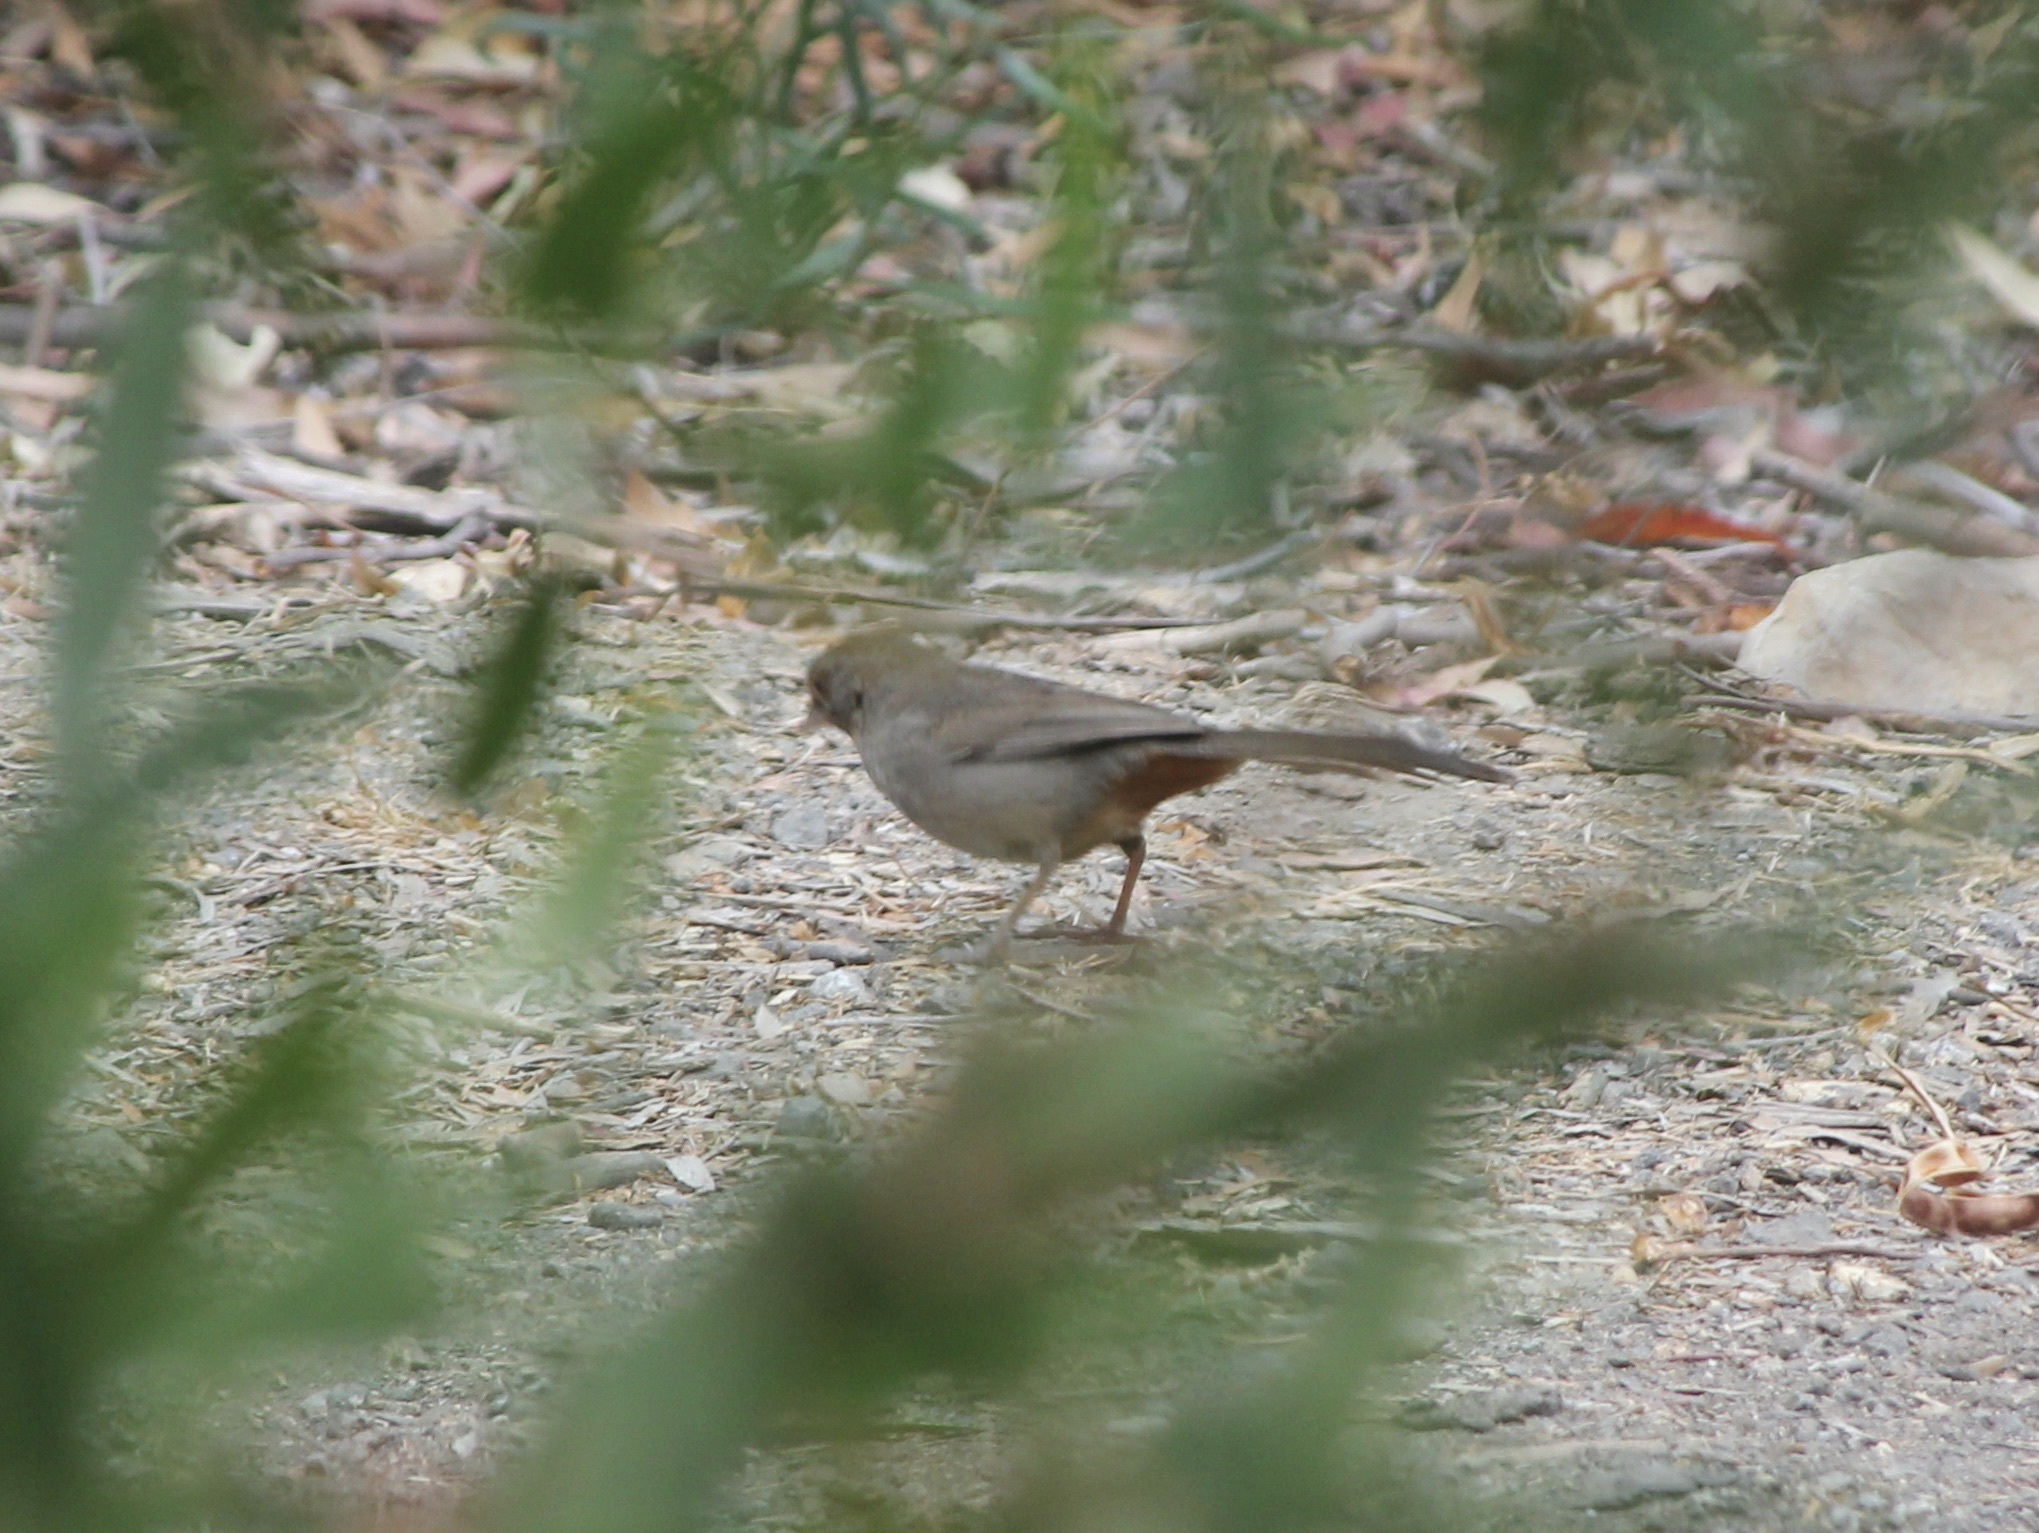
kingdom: Animalia
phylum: Chordata
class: Aves
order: Passeriformes
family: Passerellidae
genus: Melozone
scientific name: Melozone crissalis
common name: California towhee
